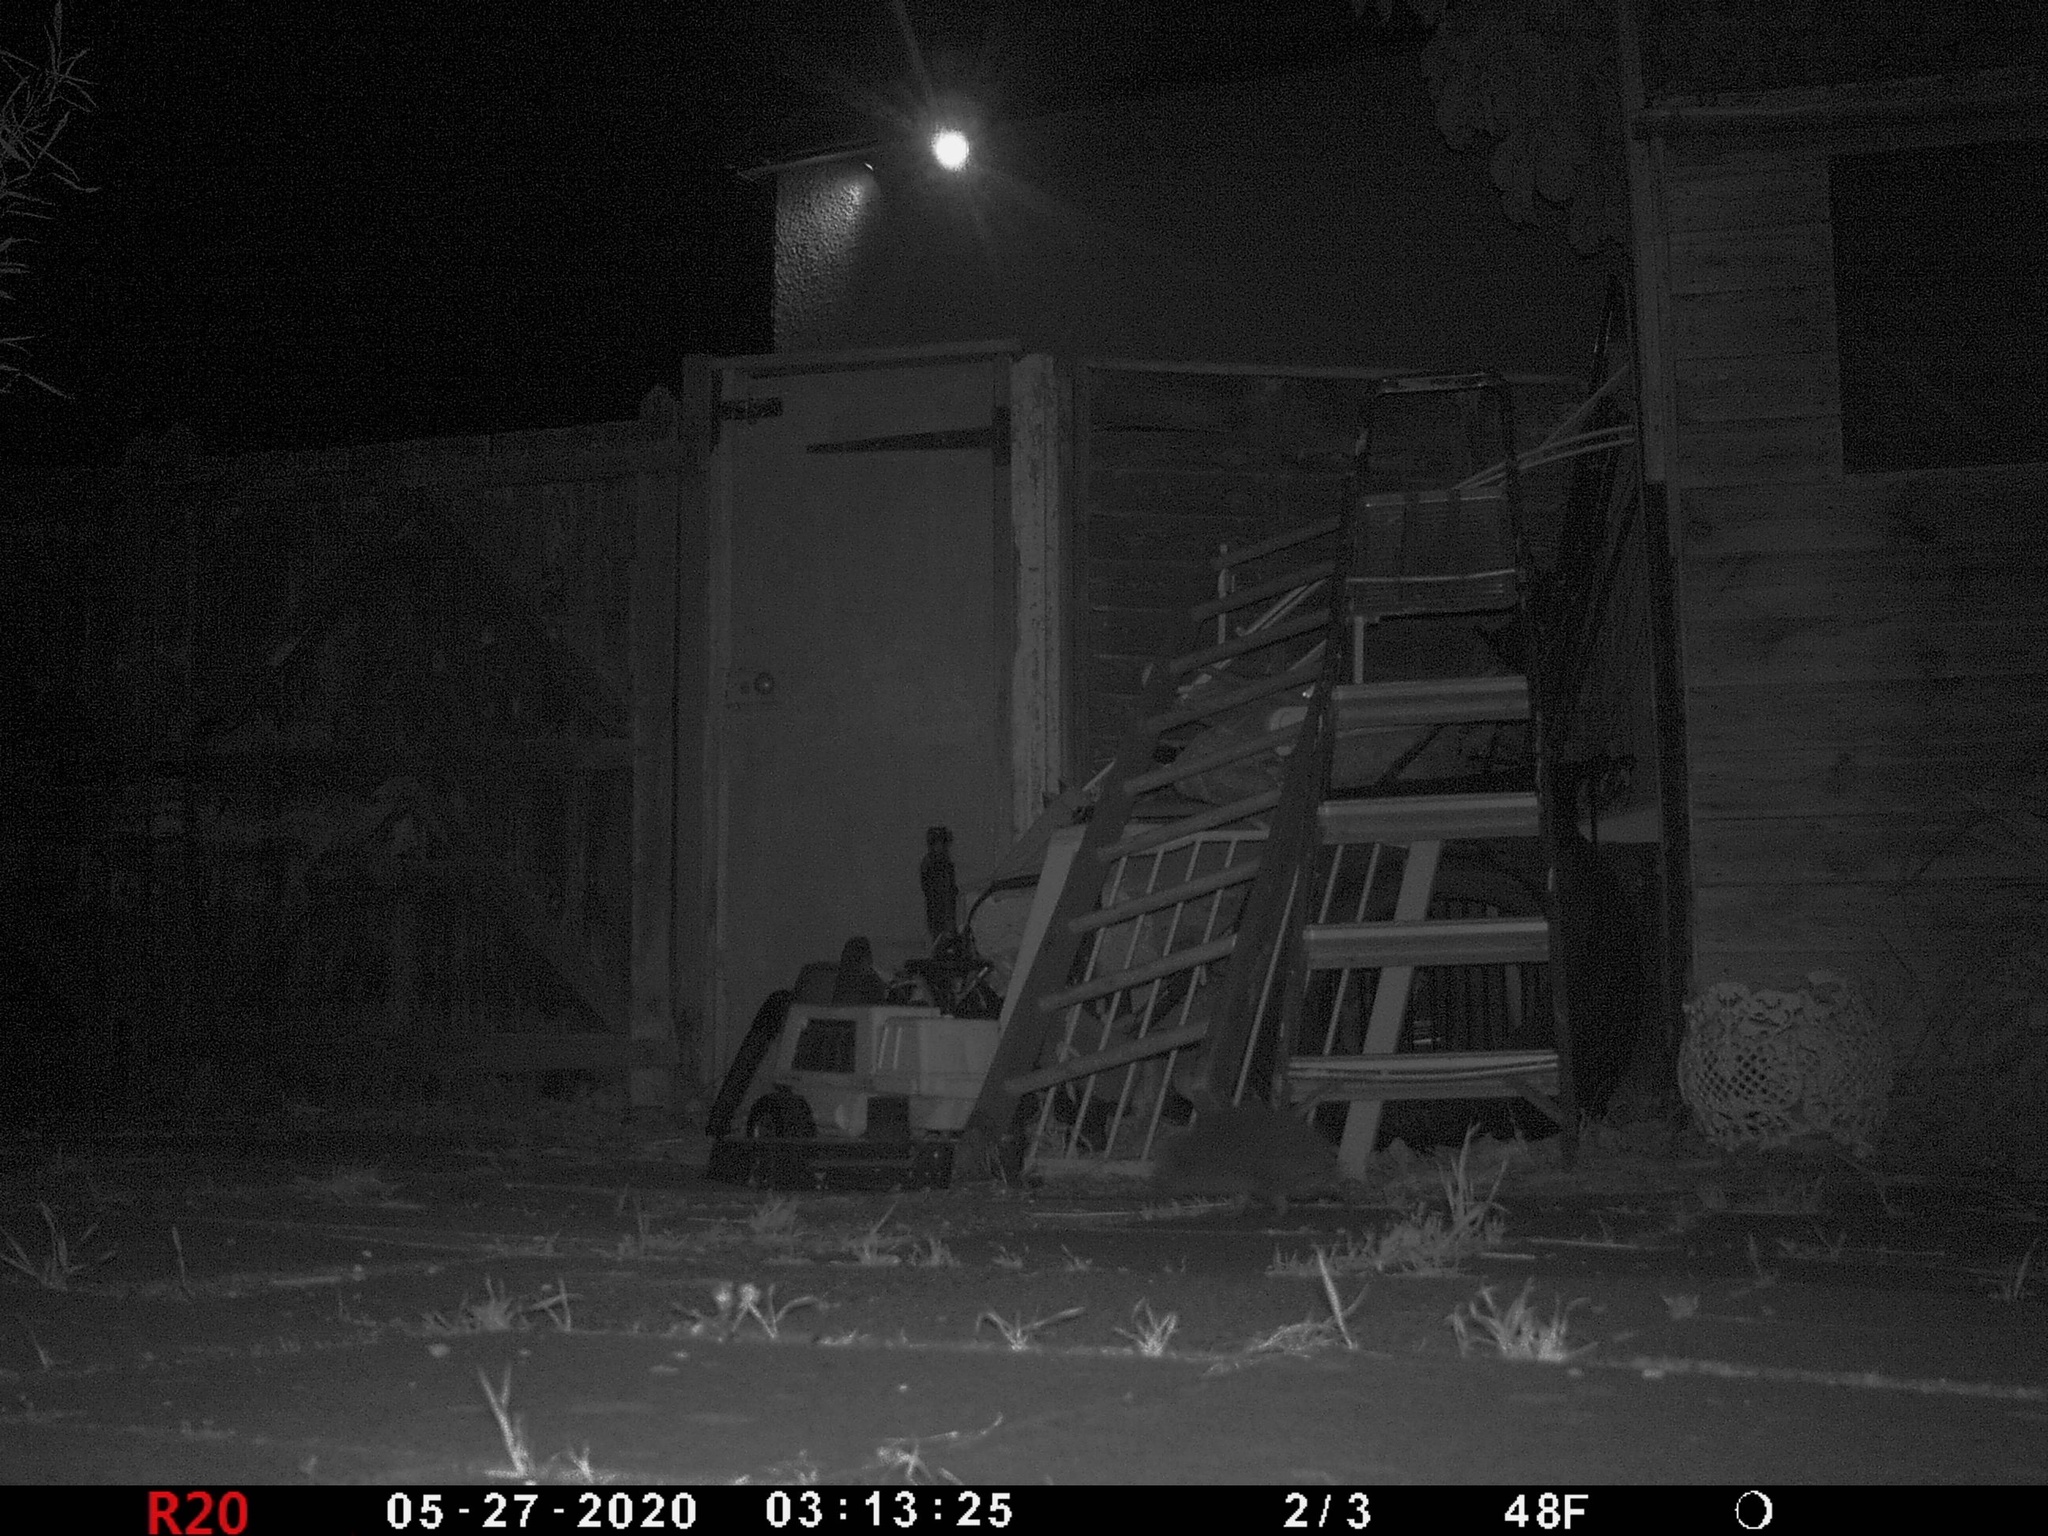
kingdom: Animalia
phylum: Chordata
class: Mammalia
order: Erinaceomorpha
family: Erinaceidae
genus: Erinaceus
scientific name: Erinaceus europaeus
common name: West european hedgehog
